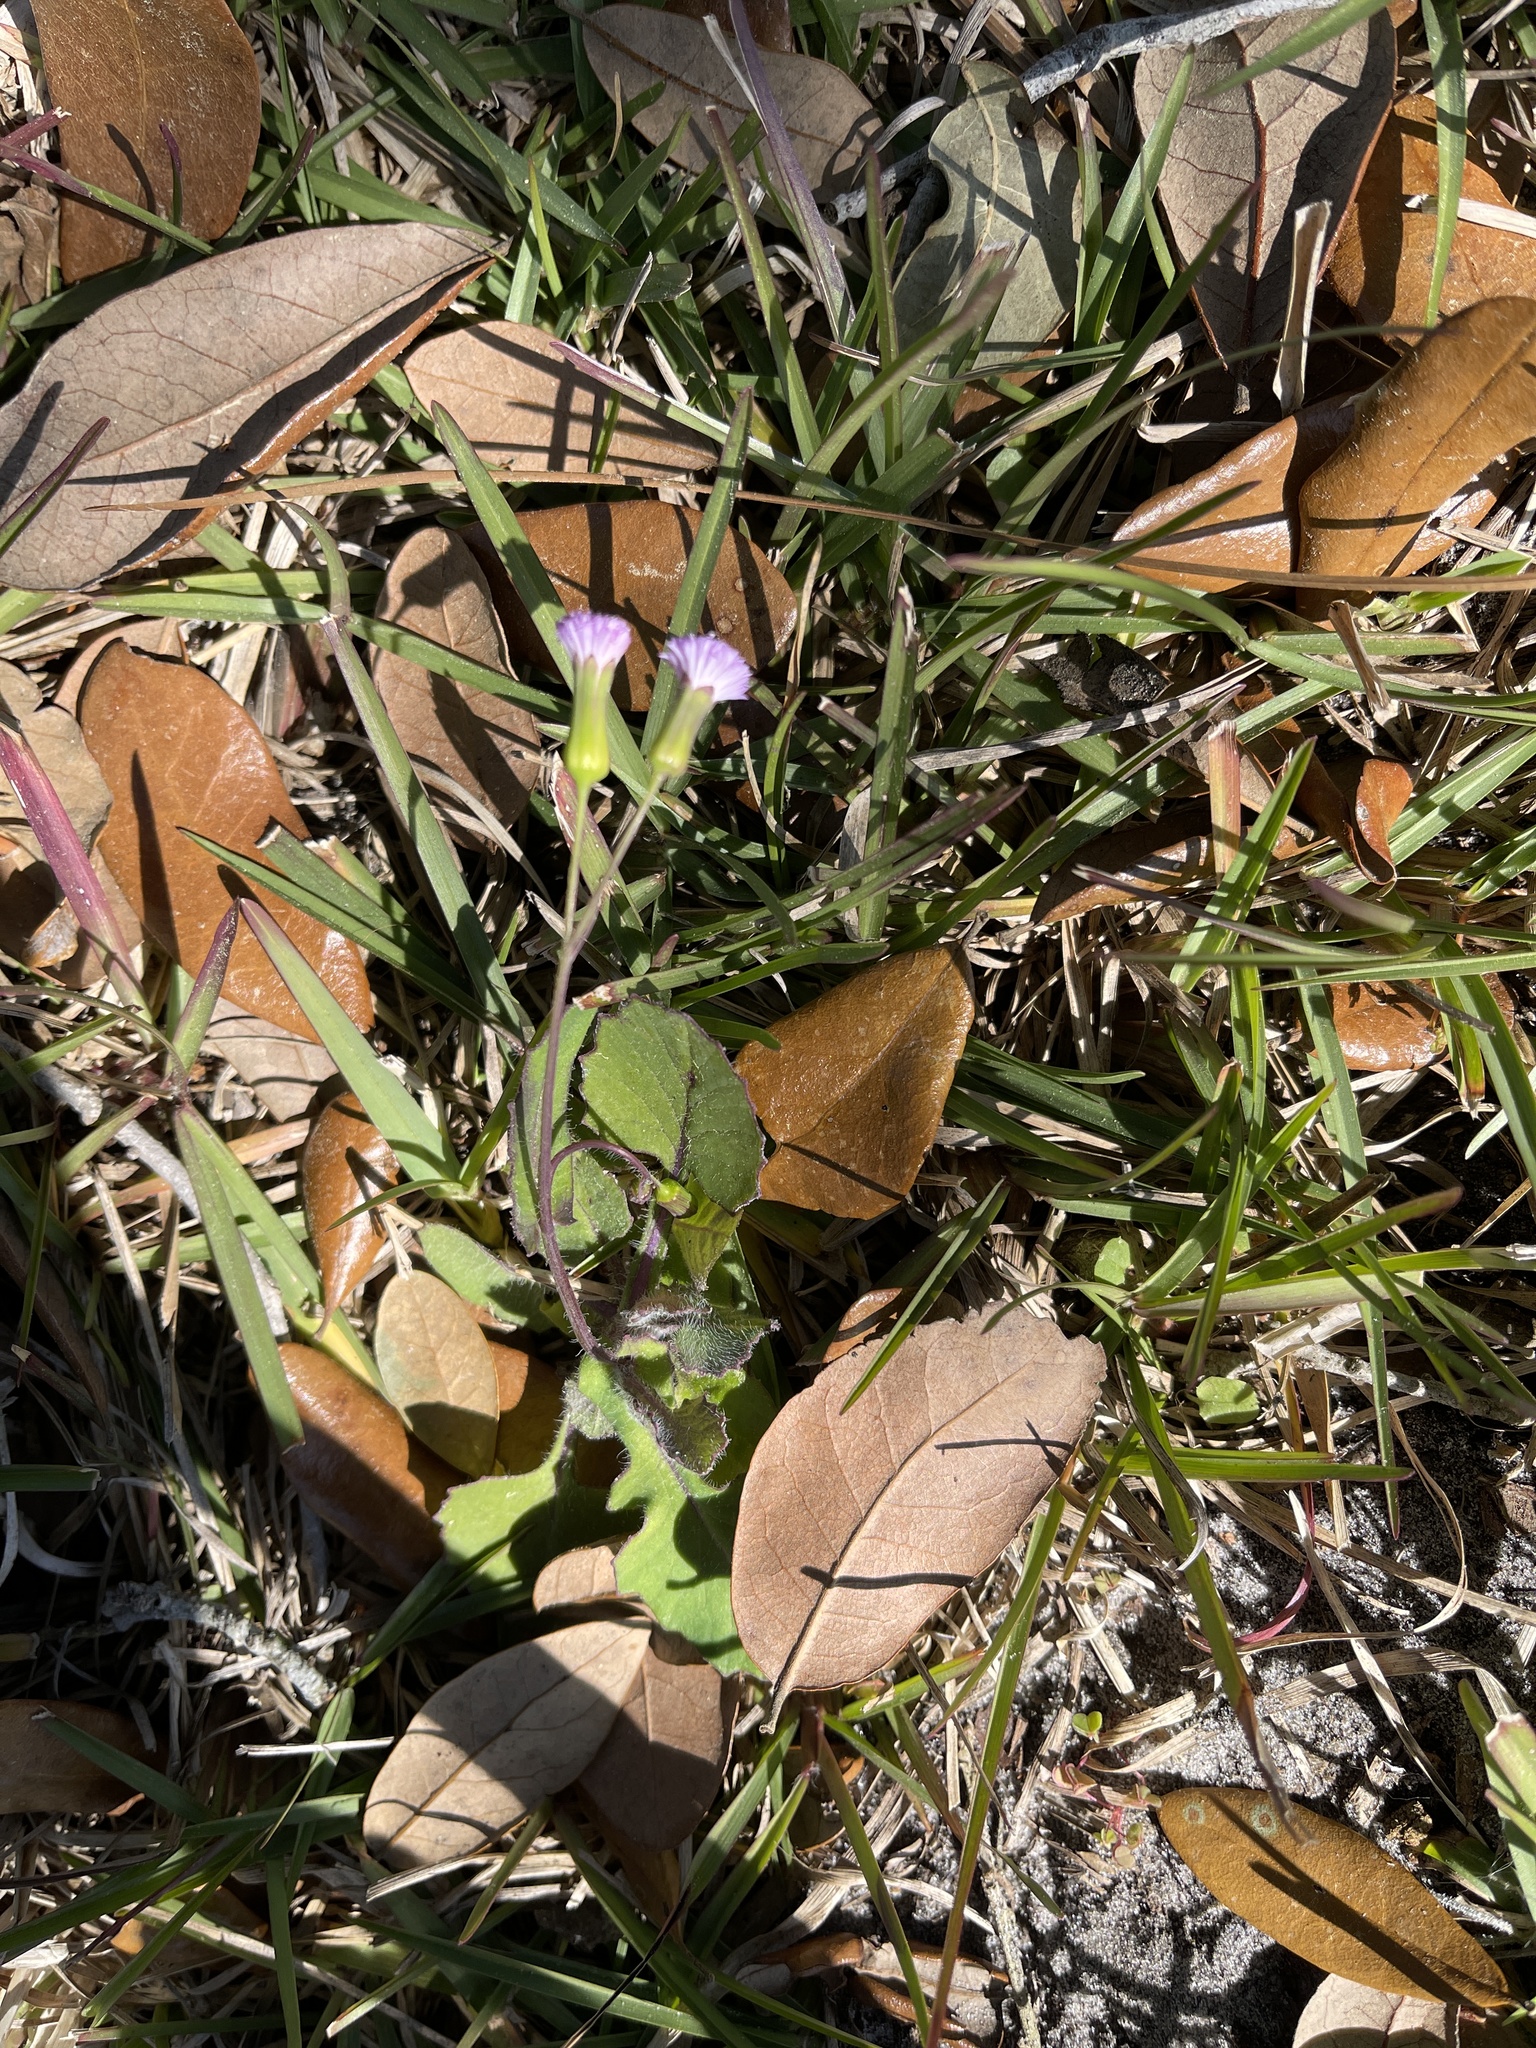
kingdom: Plantae
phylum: Tracheophyta
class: Magnoliopsida
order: Asterales
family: Asteraceae
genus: Emilia
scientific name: Emilia sonchifolia
